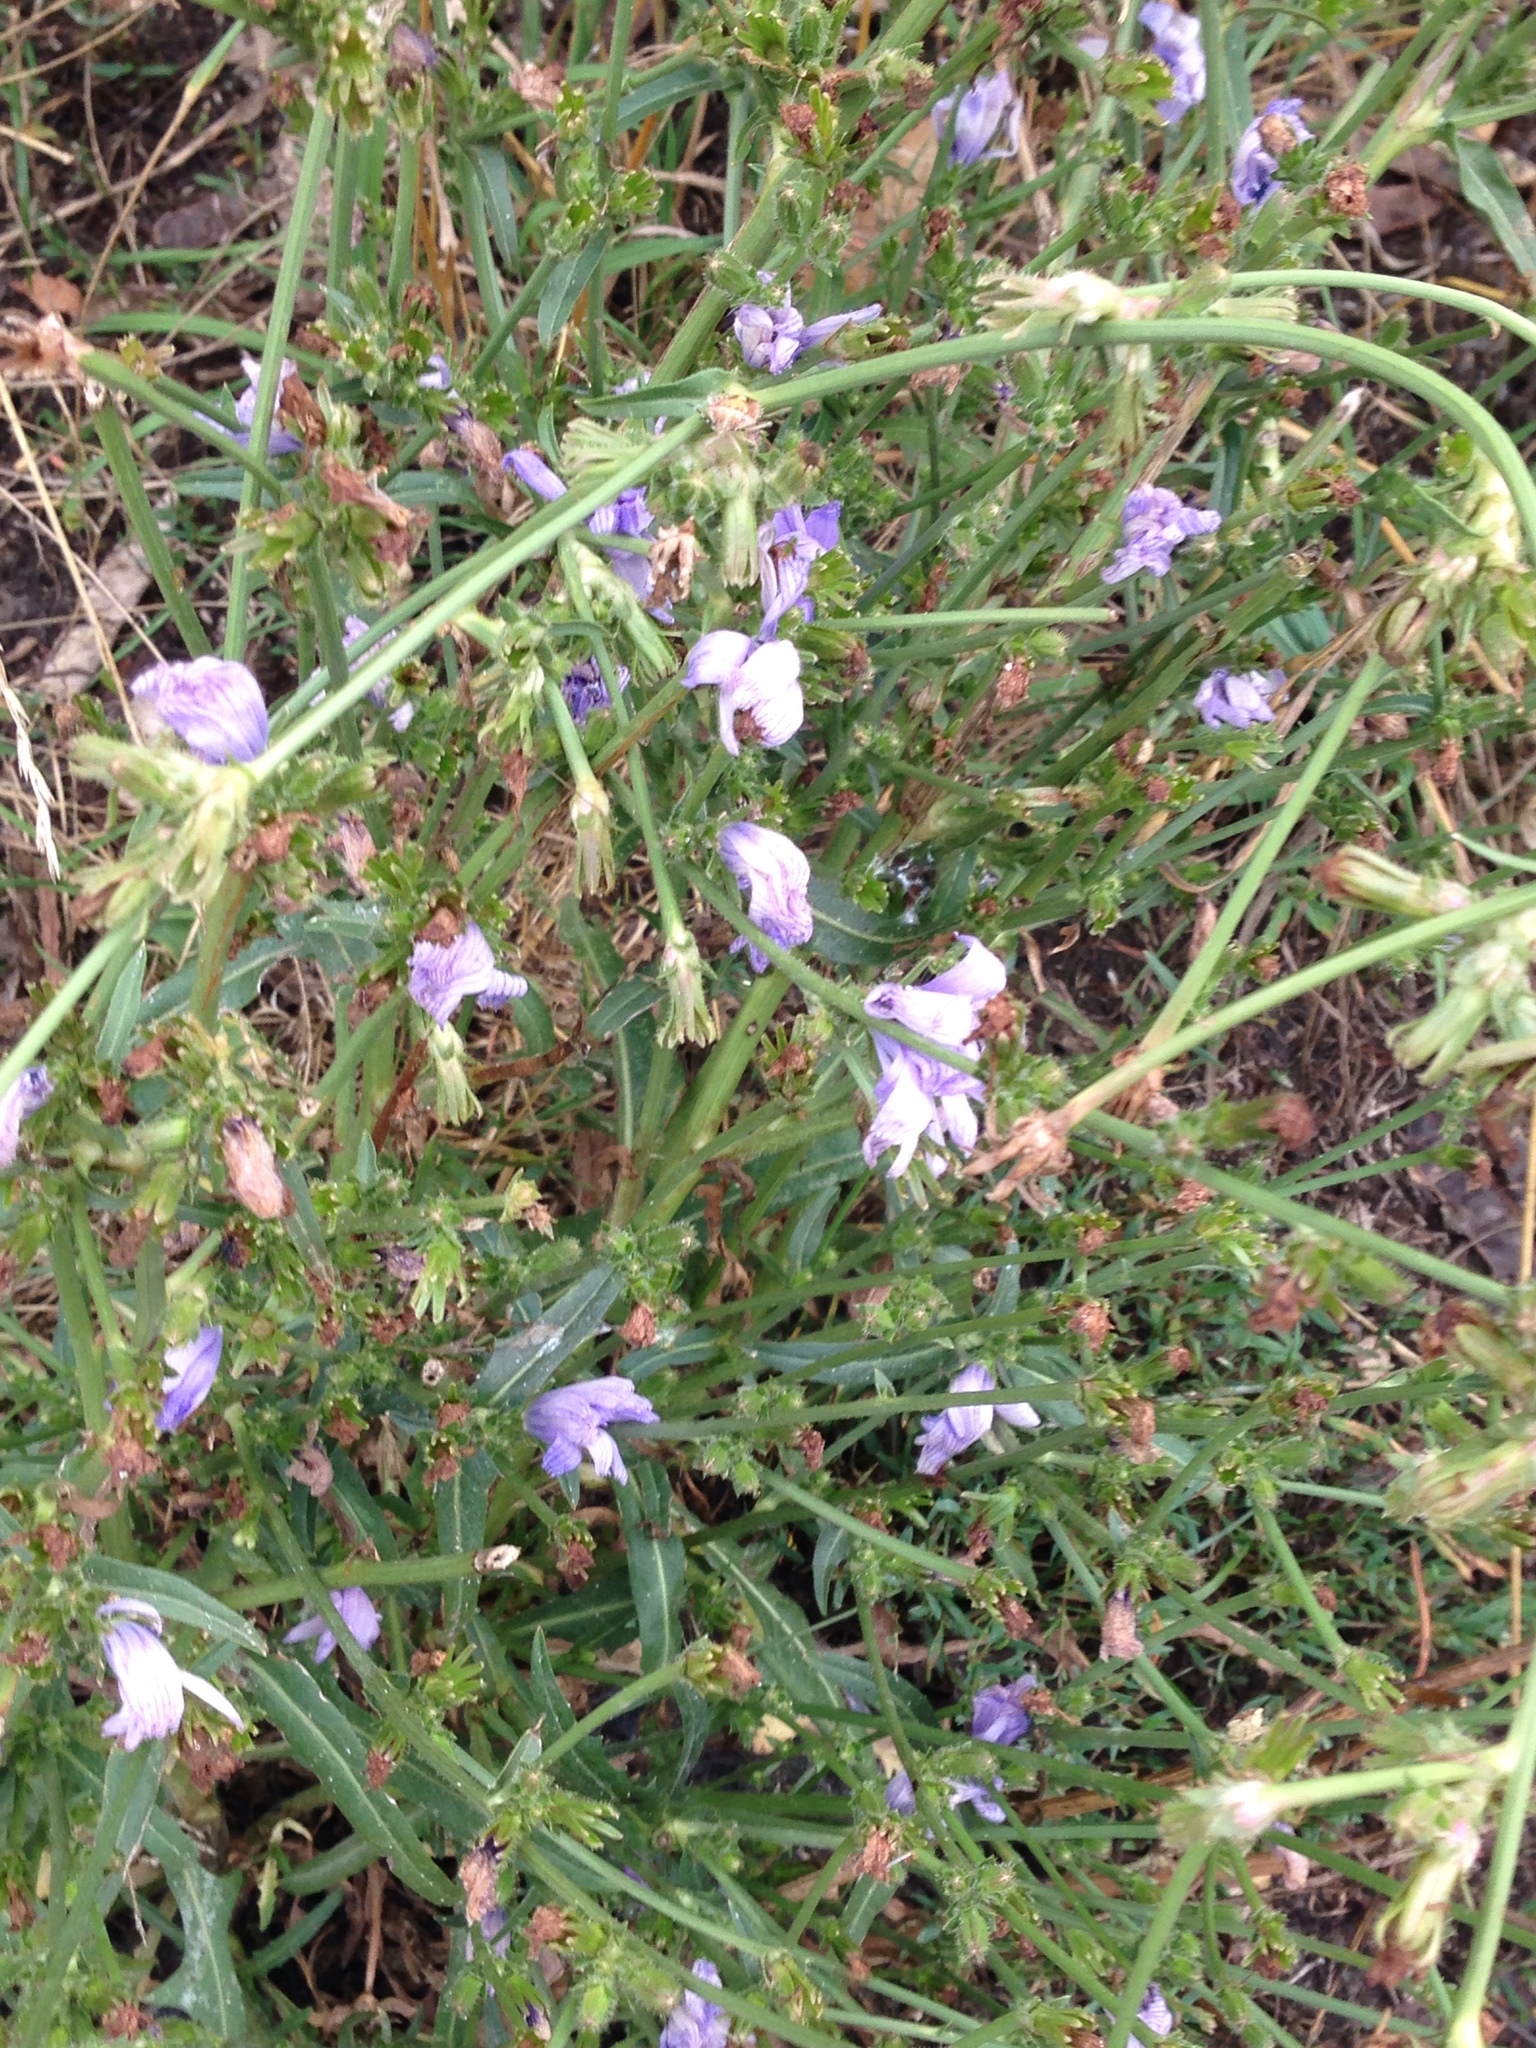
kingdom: Plantae
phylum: Tracheophyta
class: Magnoliopsida
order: Asterales
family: Asteraceae
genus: Cichorium
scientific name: Cichorium intybus
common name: Chicory
